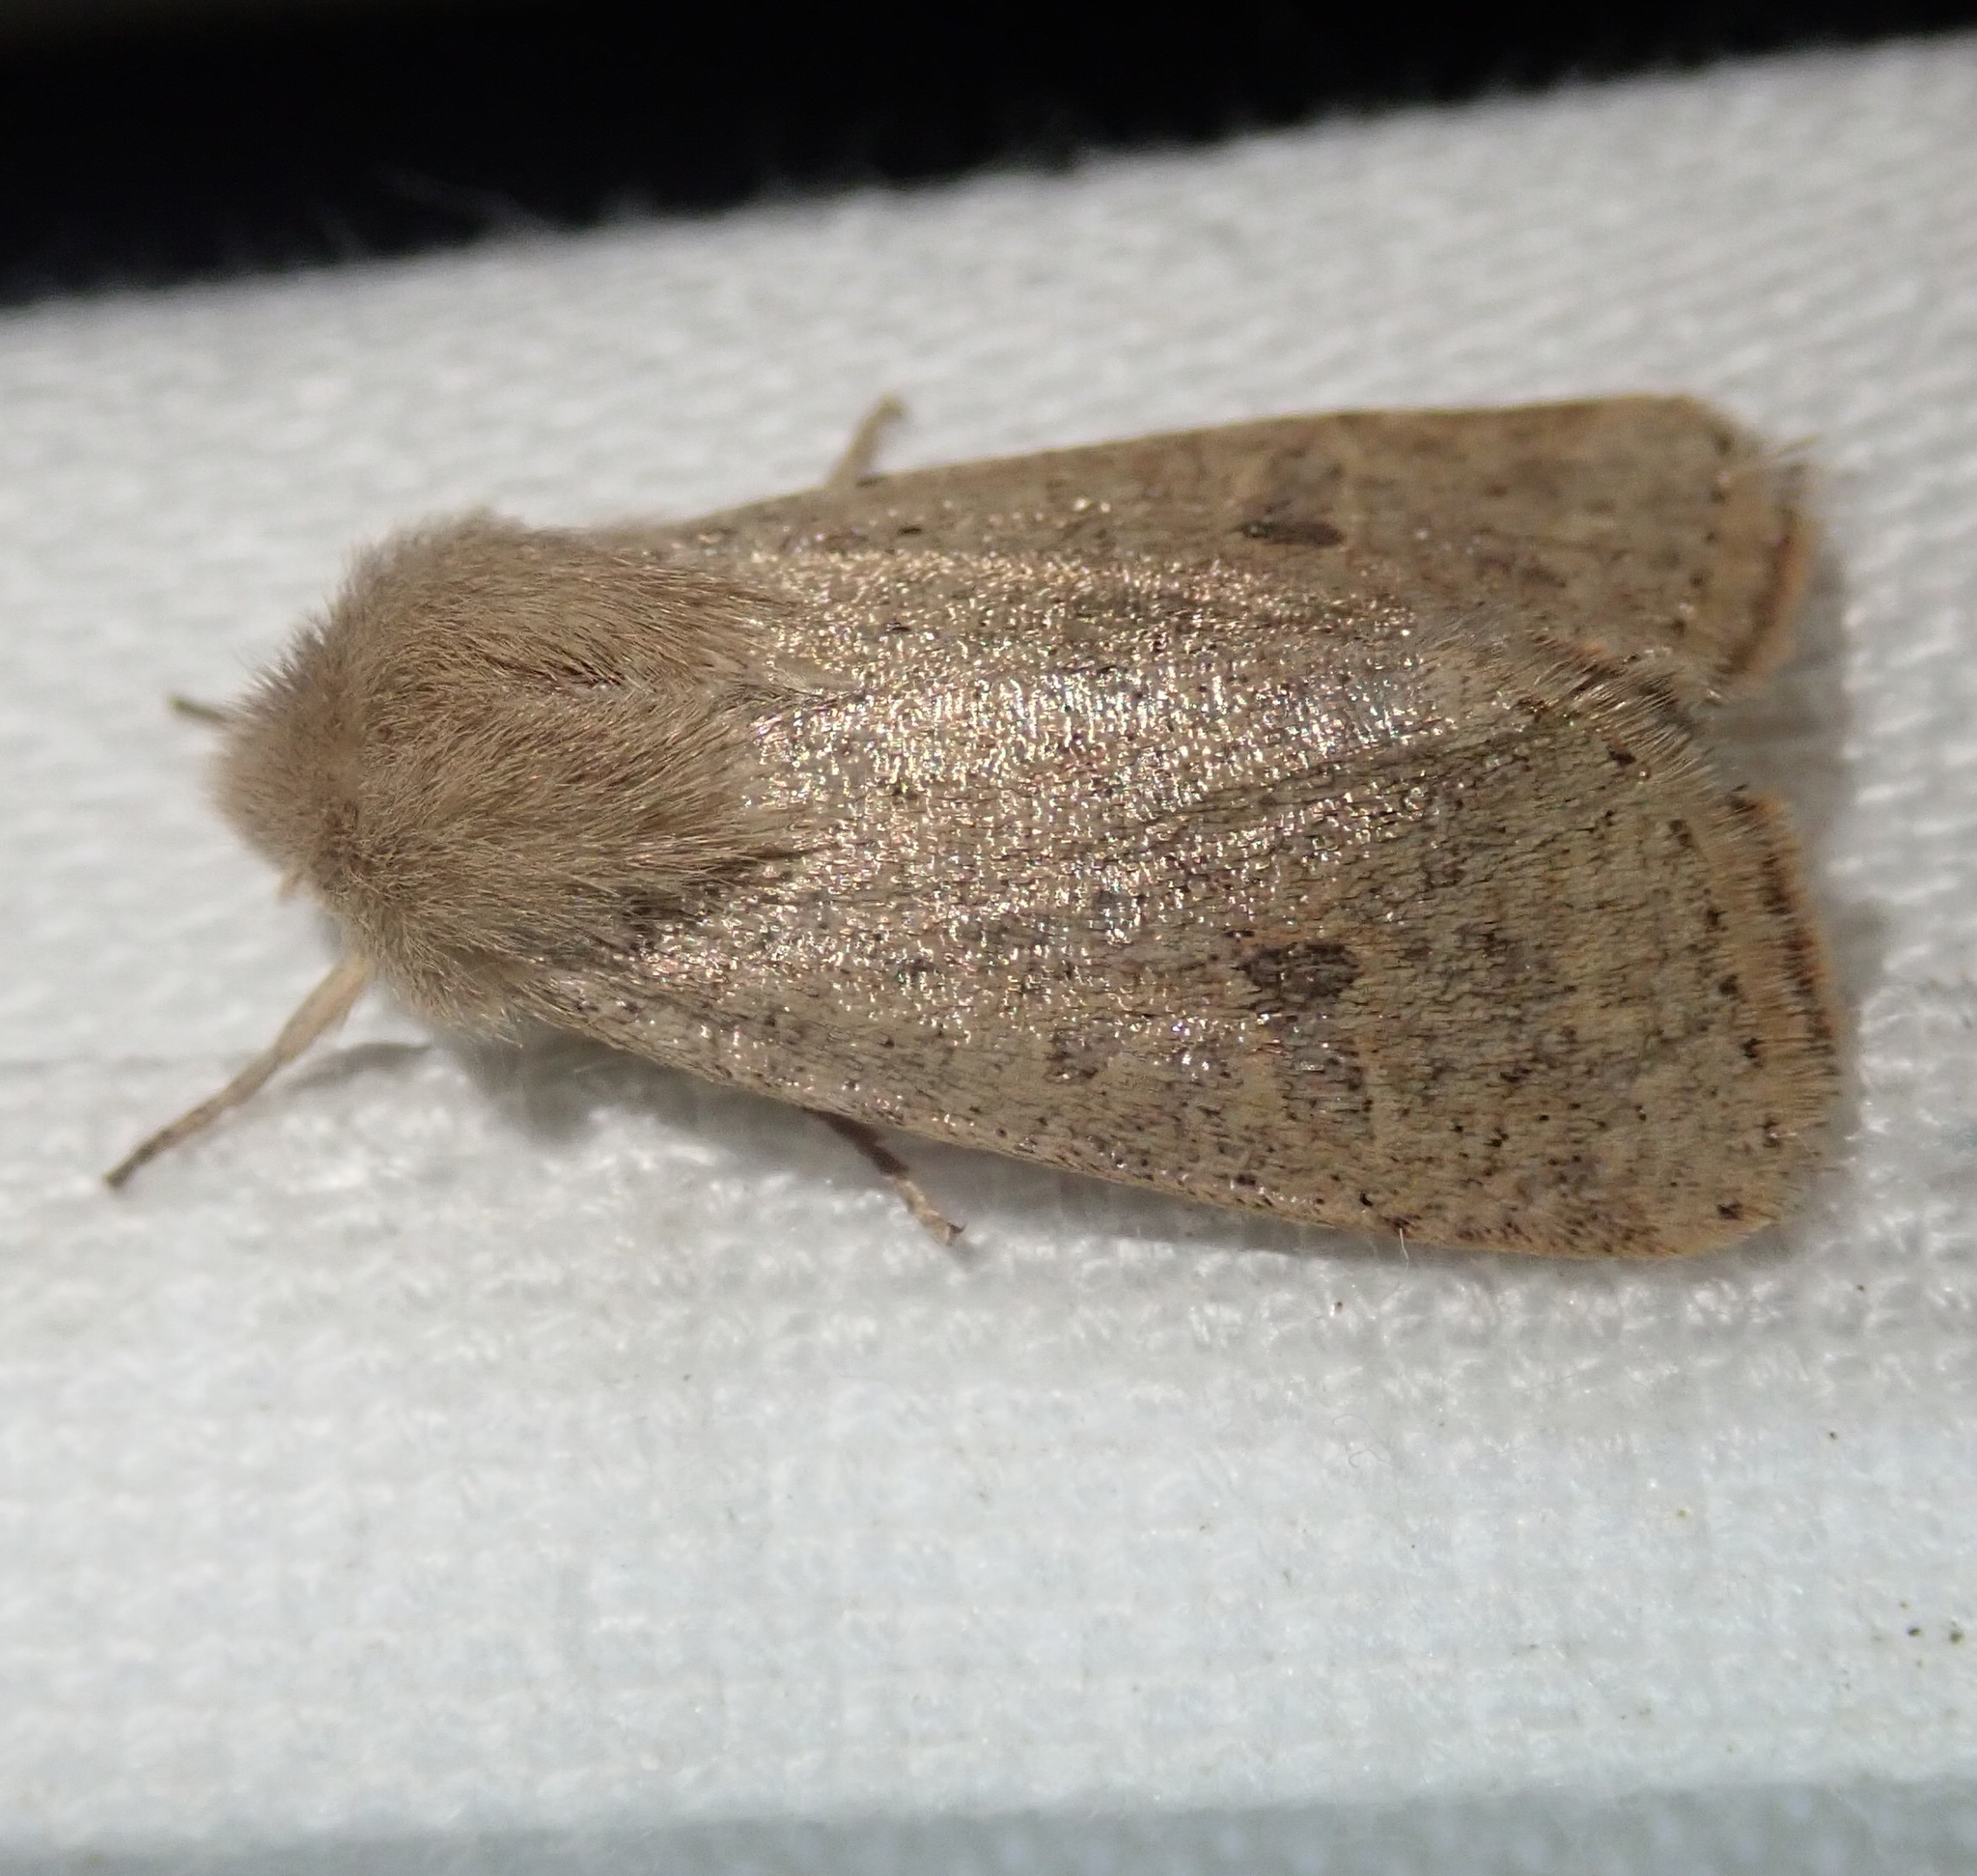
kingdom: Animalia
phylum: Arthropoda
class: Insecta
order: Lepidoptera
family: Noctuidae
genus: Orthosia
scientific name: Orthosia cruda
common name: Small quaker
